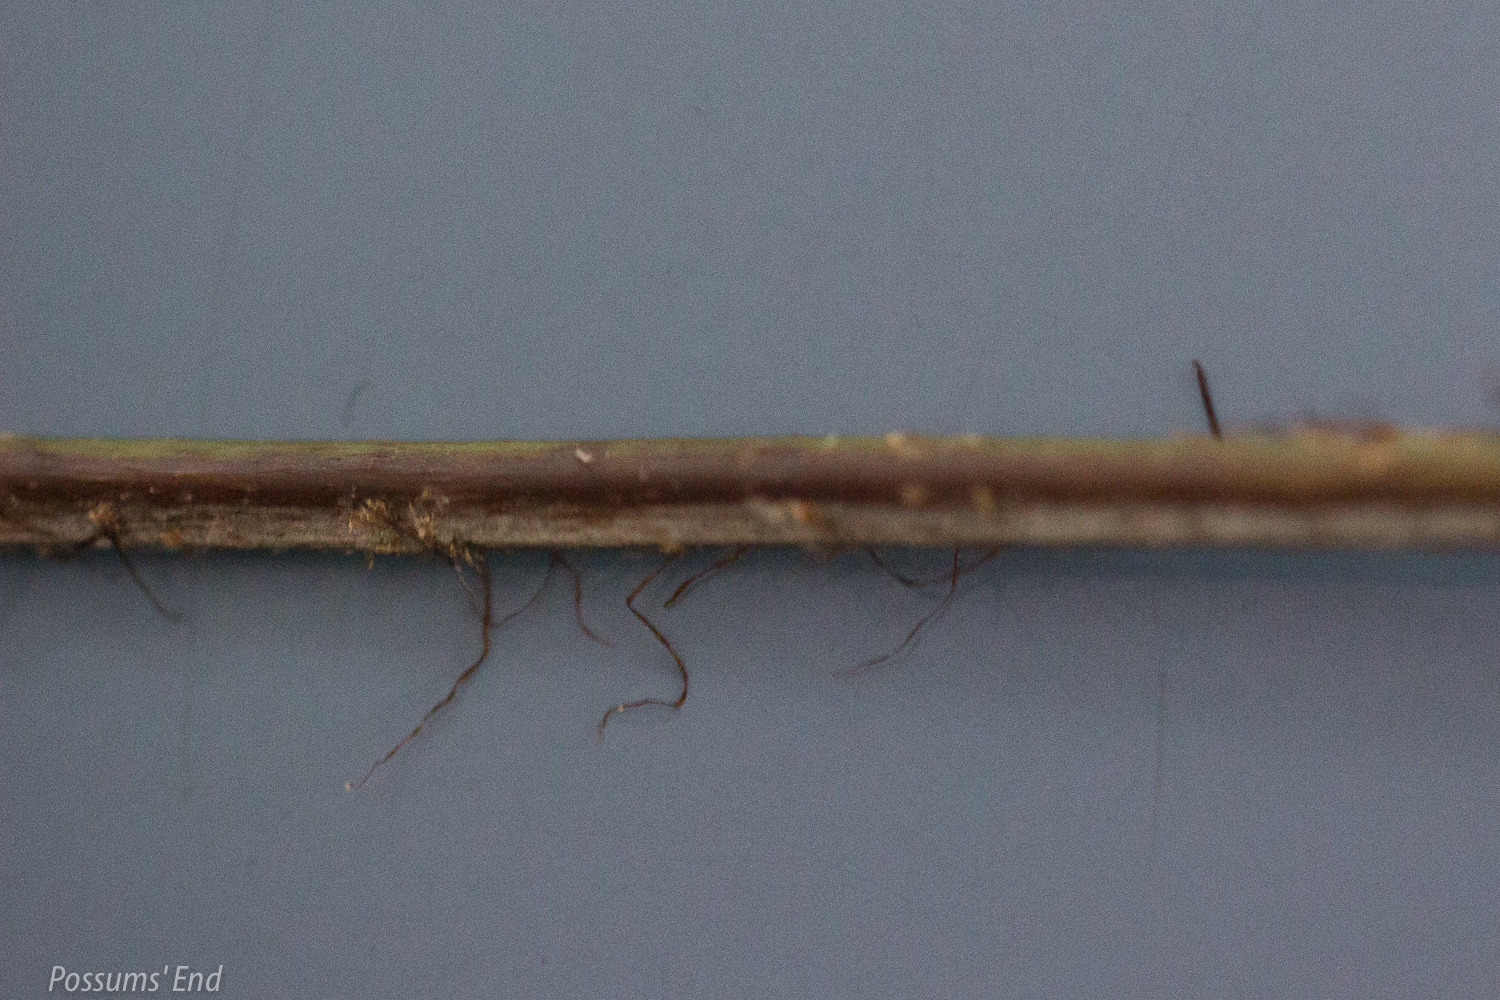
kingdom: Plantae
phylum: Tracheophyta
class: Polypodiopsida
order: Polypodiales
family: Dryopteridaceae
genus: Polystichum
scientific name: Polystichum neozelandicum
